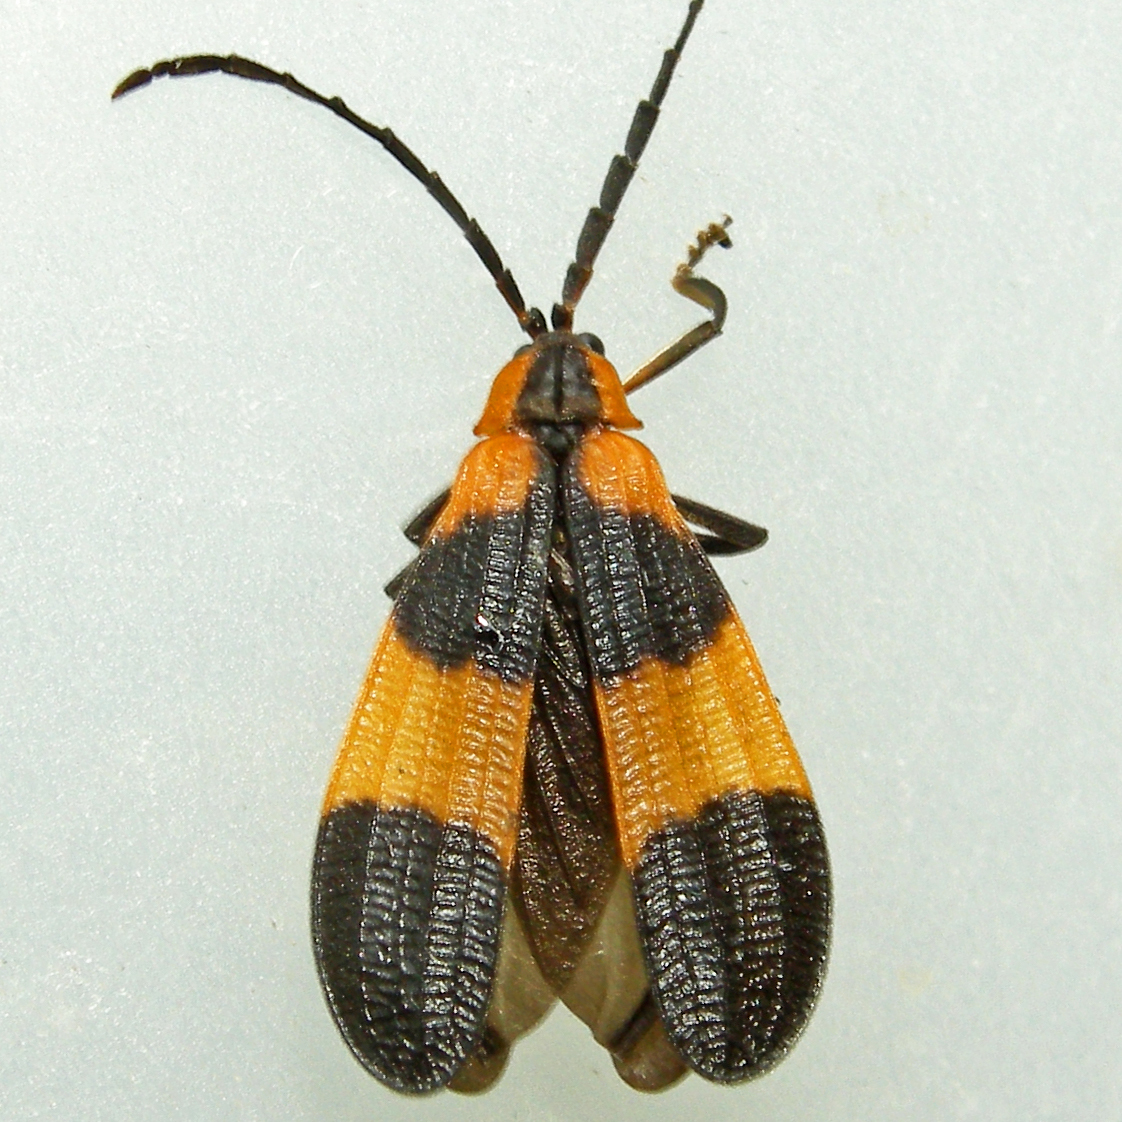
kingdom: Animalia
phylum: Arthropoda
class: Insecta
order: Coleoptera
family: Lycidae
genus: Calopteron
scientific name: Calopteron reticulatum
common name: Banded net-winged beetle
